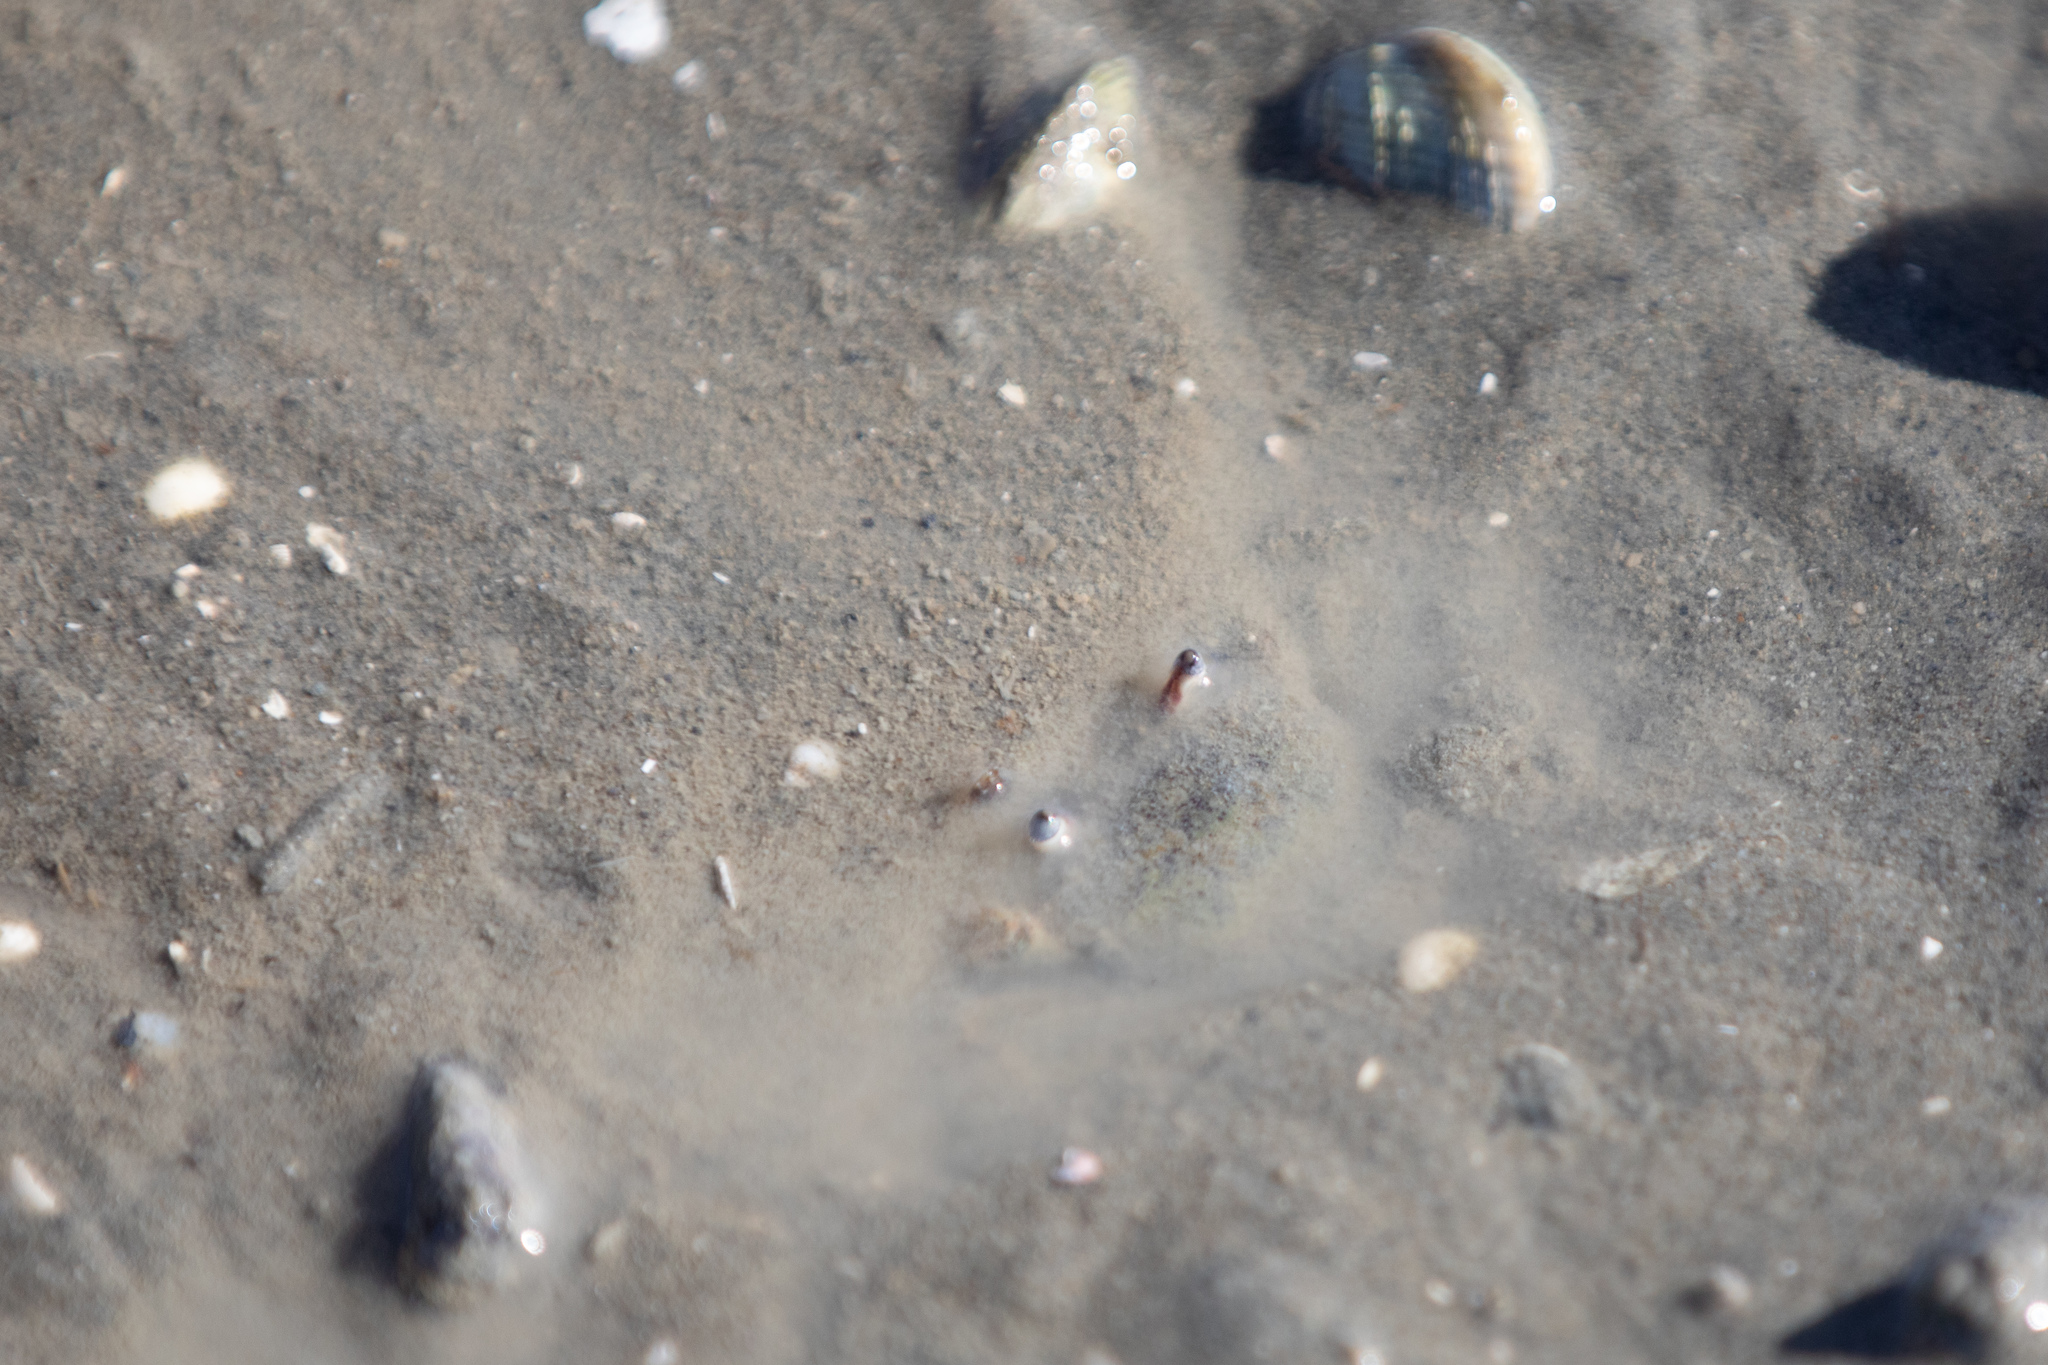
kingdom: Animalia
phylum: Arthropoda
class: Malacostraca
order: Decapoda
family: Macrophthalmidae
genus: Hemiplax
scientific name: Hemiplax hirtipes
